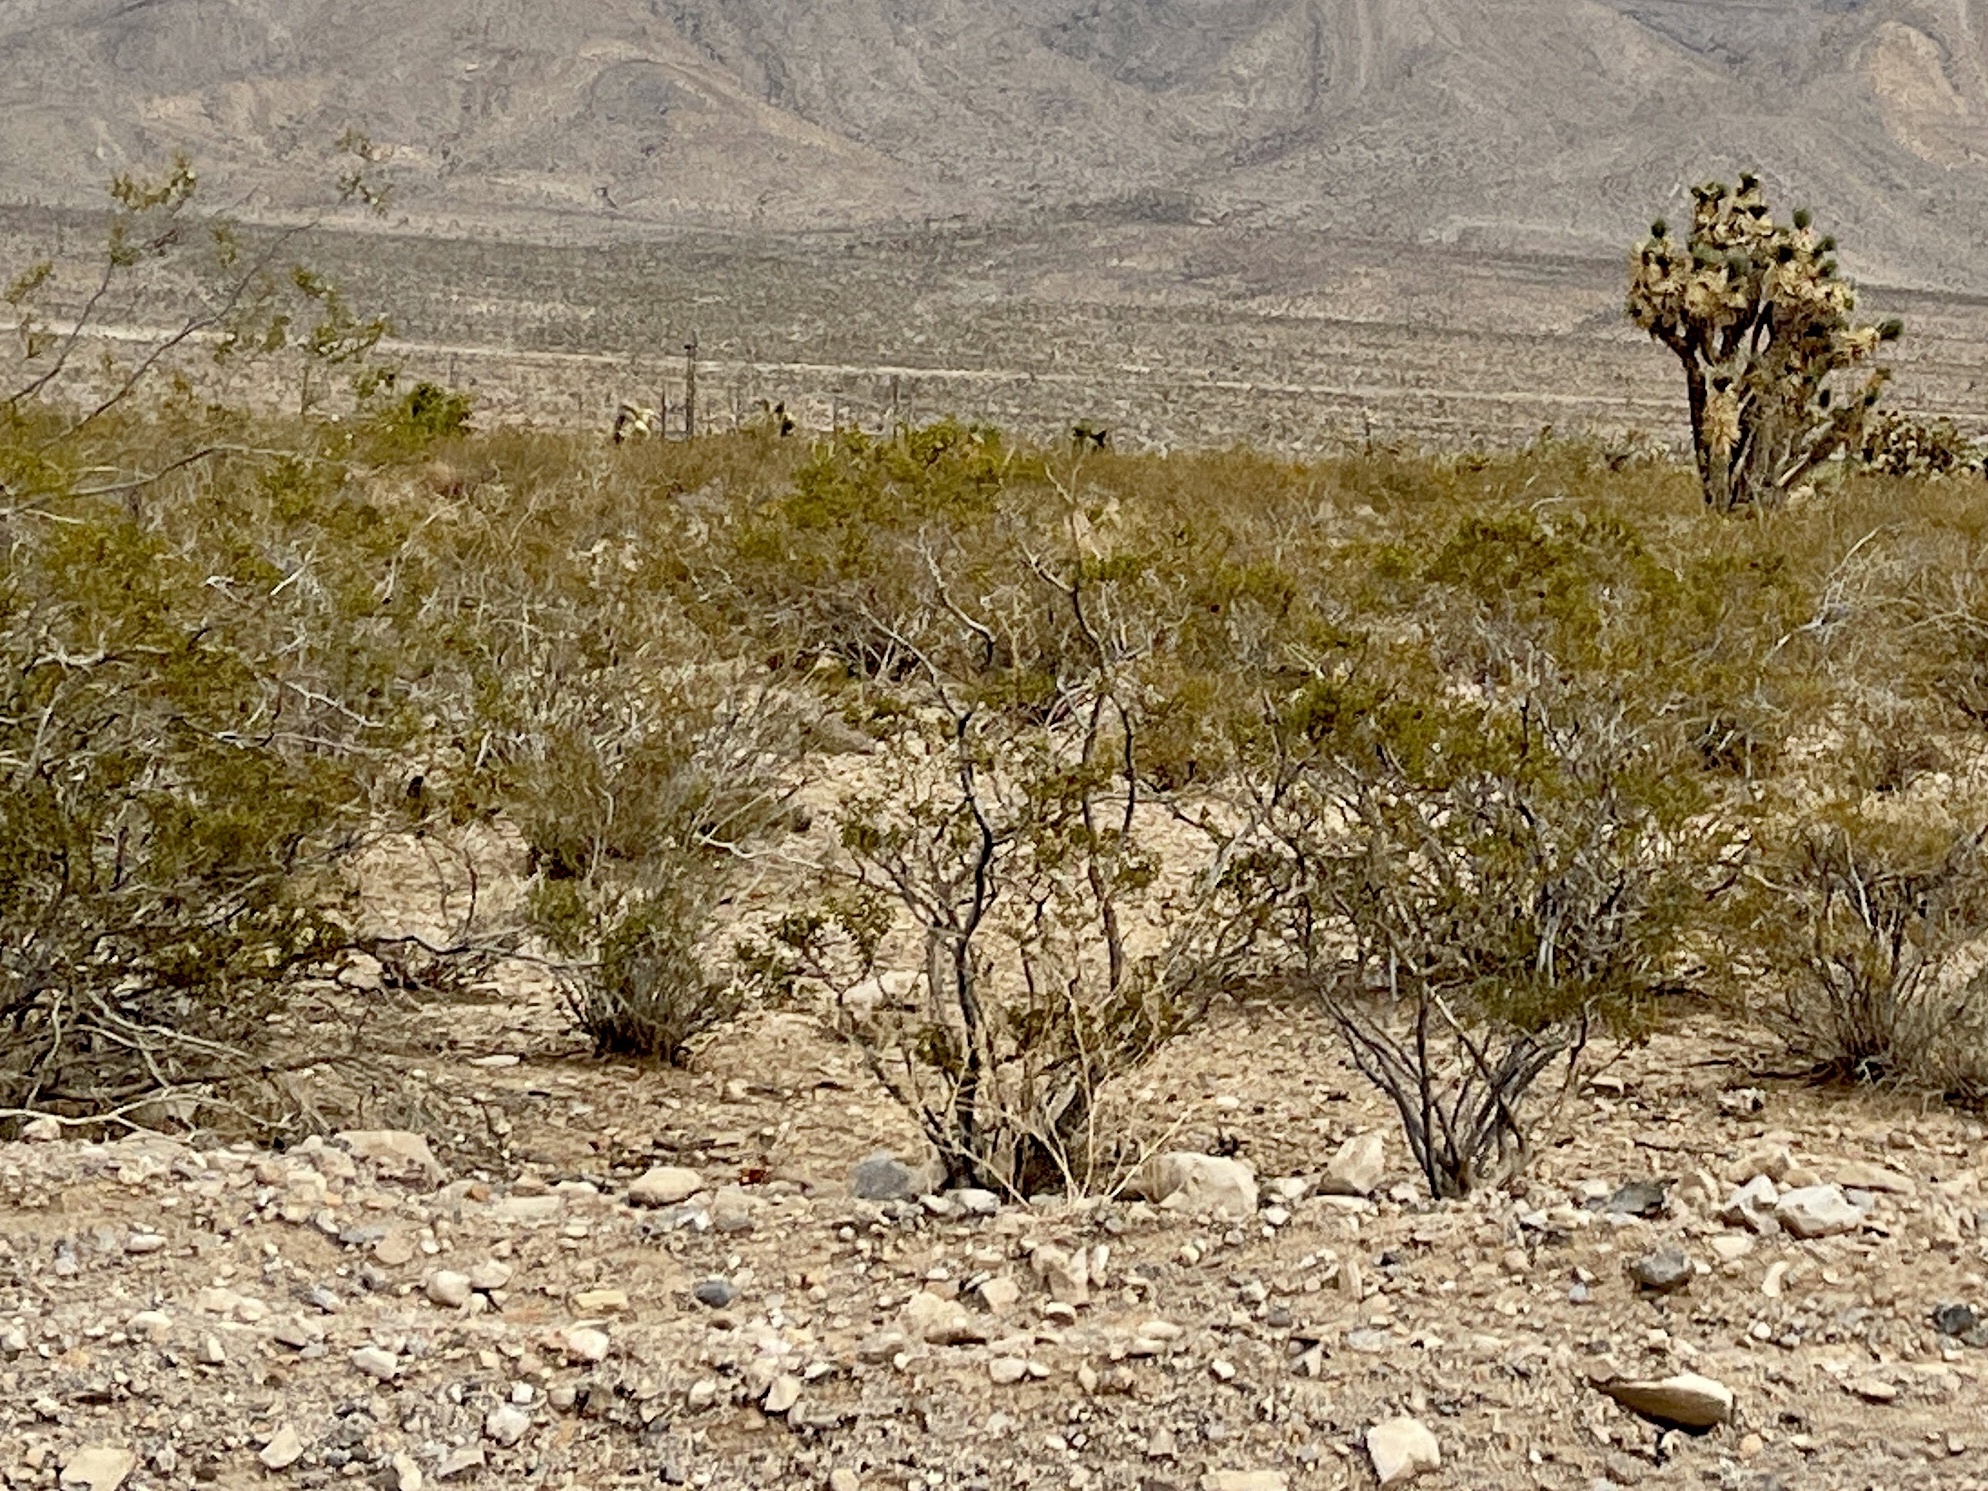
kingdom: Plantae
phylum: Tracheophyta
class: Magnoliopsida
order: Zygophyllales
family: Zygophyllaceae
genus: Larrea
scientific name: Larrea tridentata
